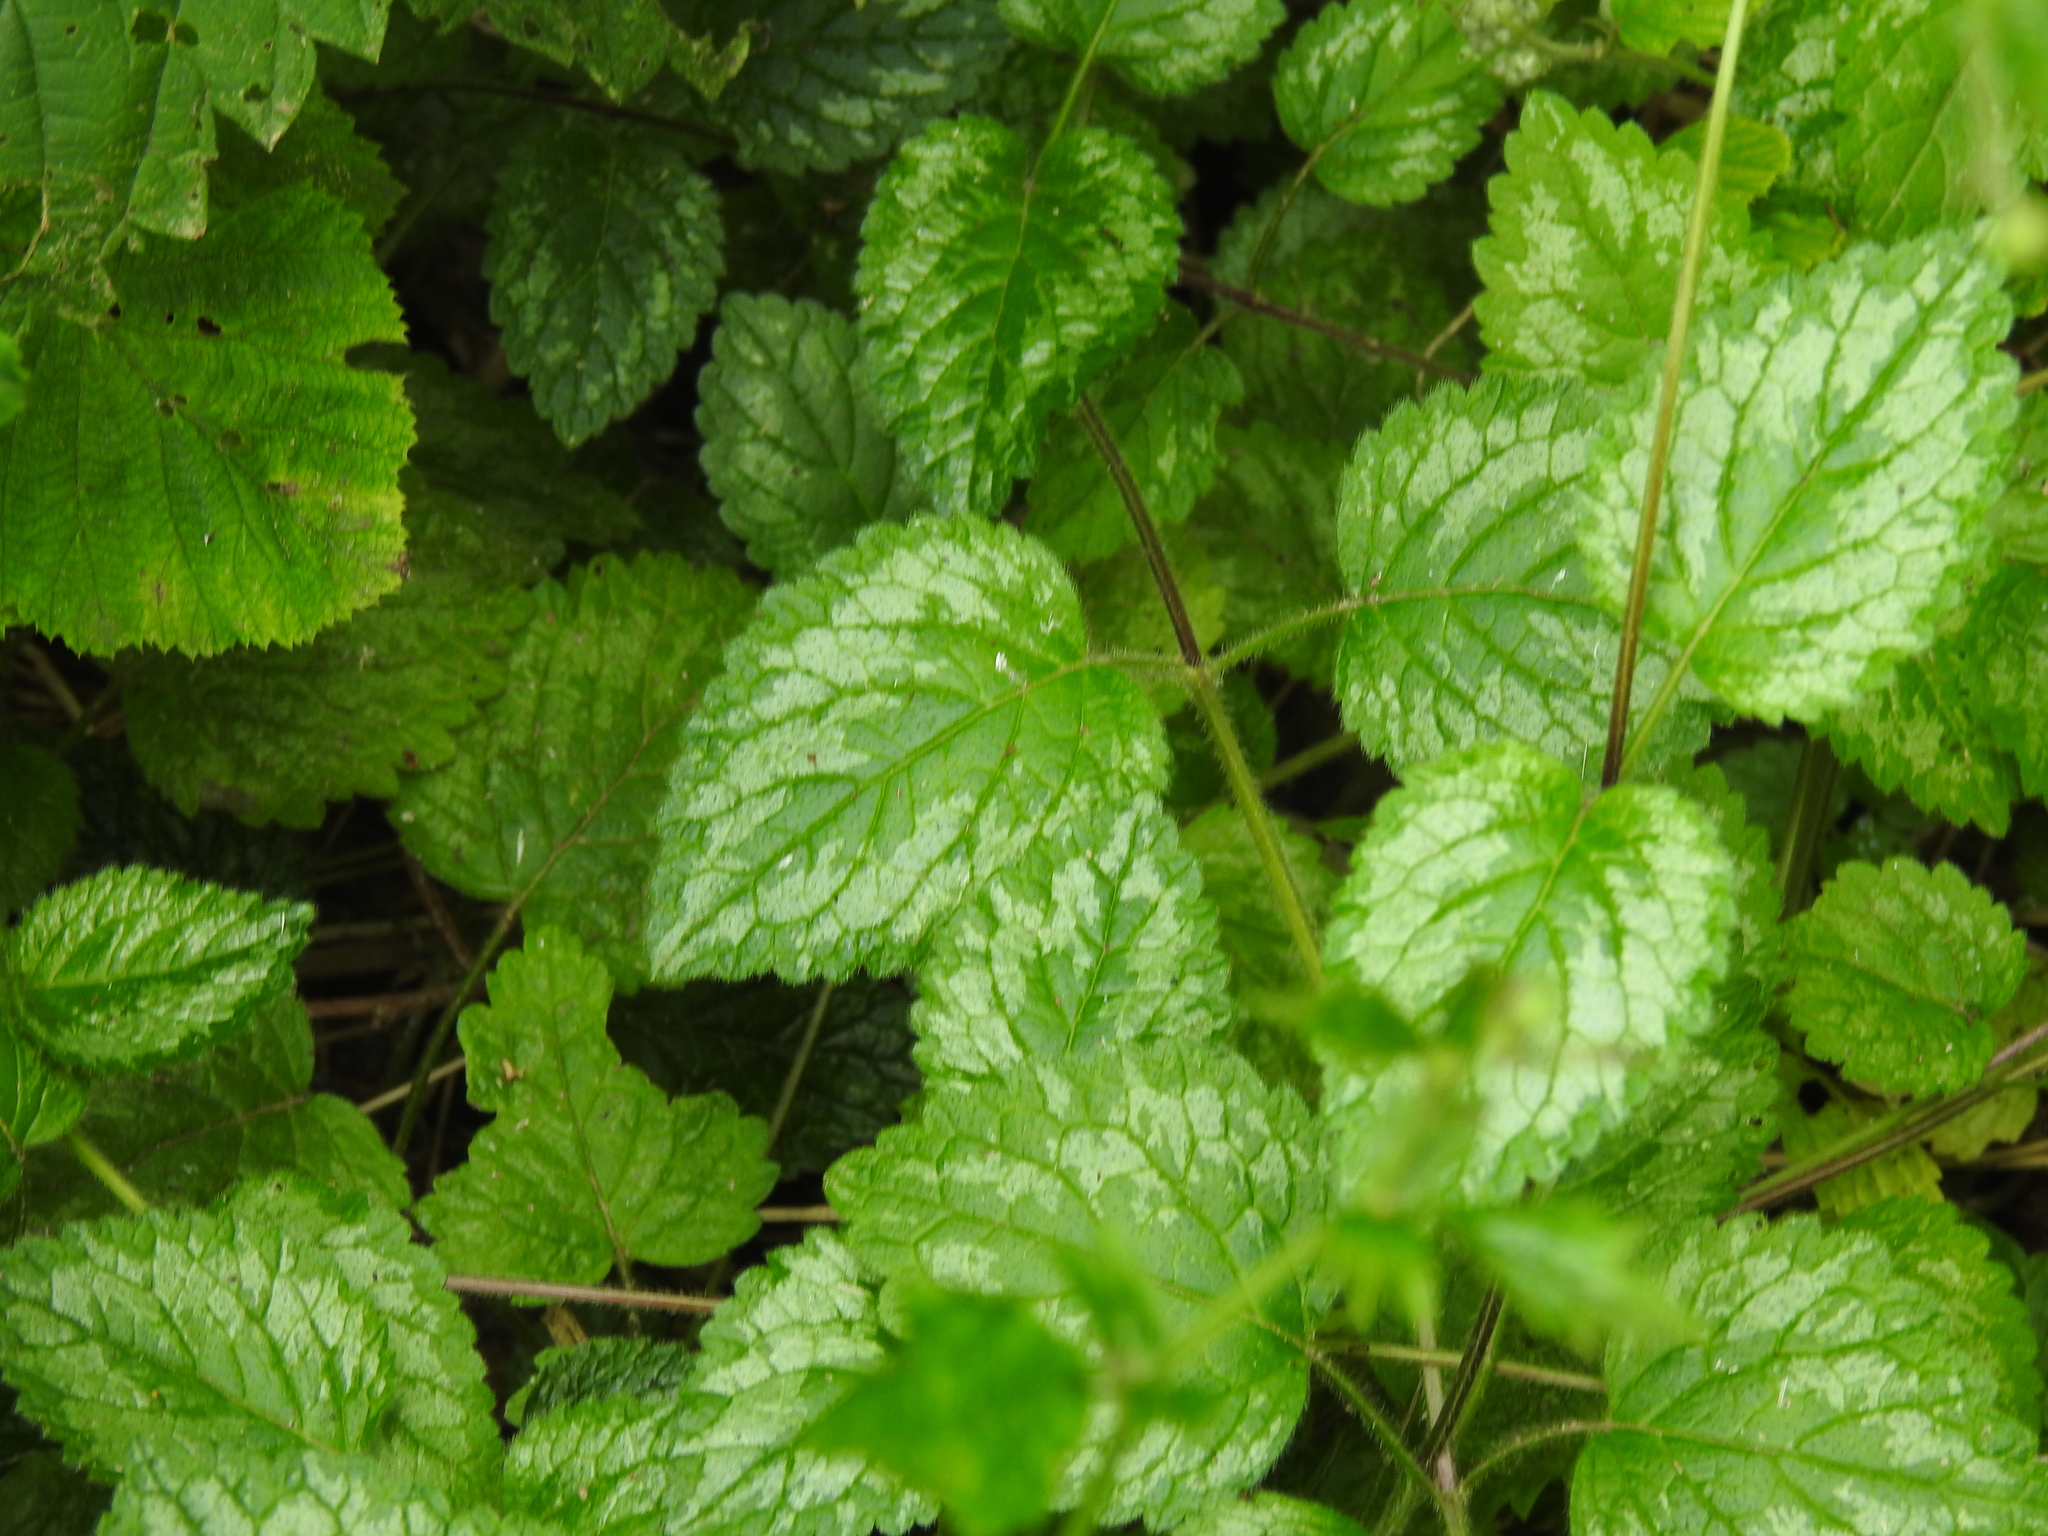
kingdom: Plantae
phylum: Tracheophyta
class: Magnoliopsida
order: Lamiales
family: Lamiaceae
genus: Lamium
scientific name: Lamium galeobdolon
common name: Yellow archangel
